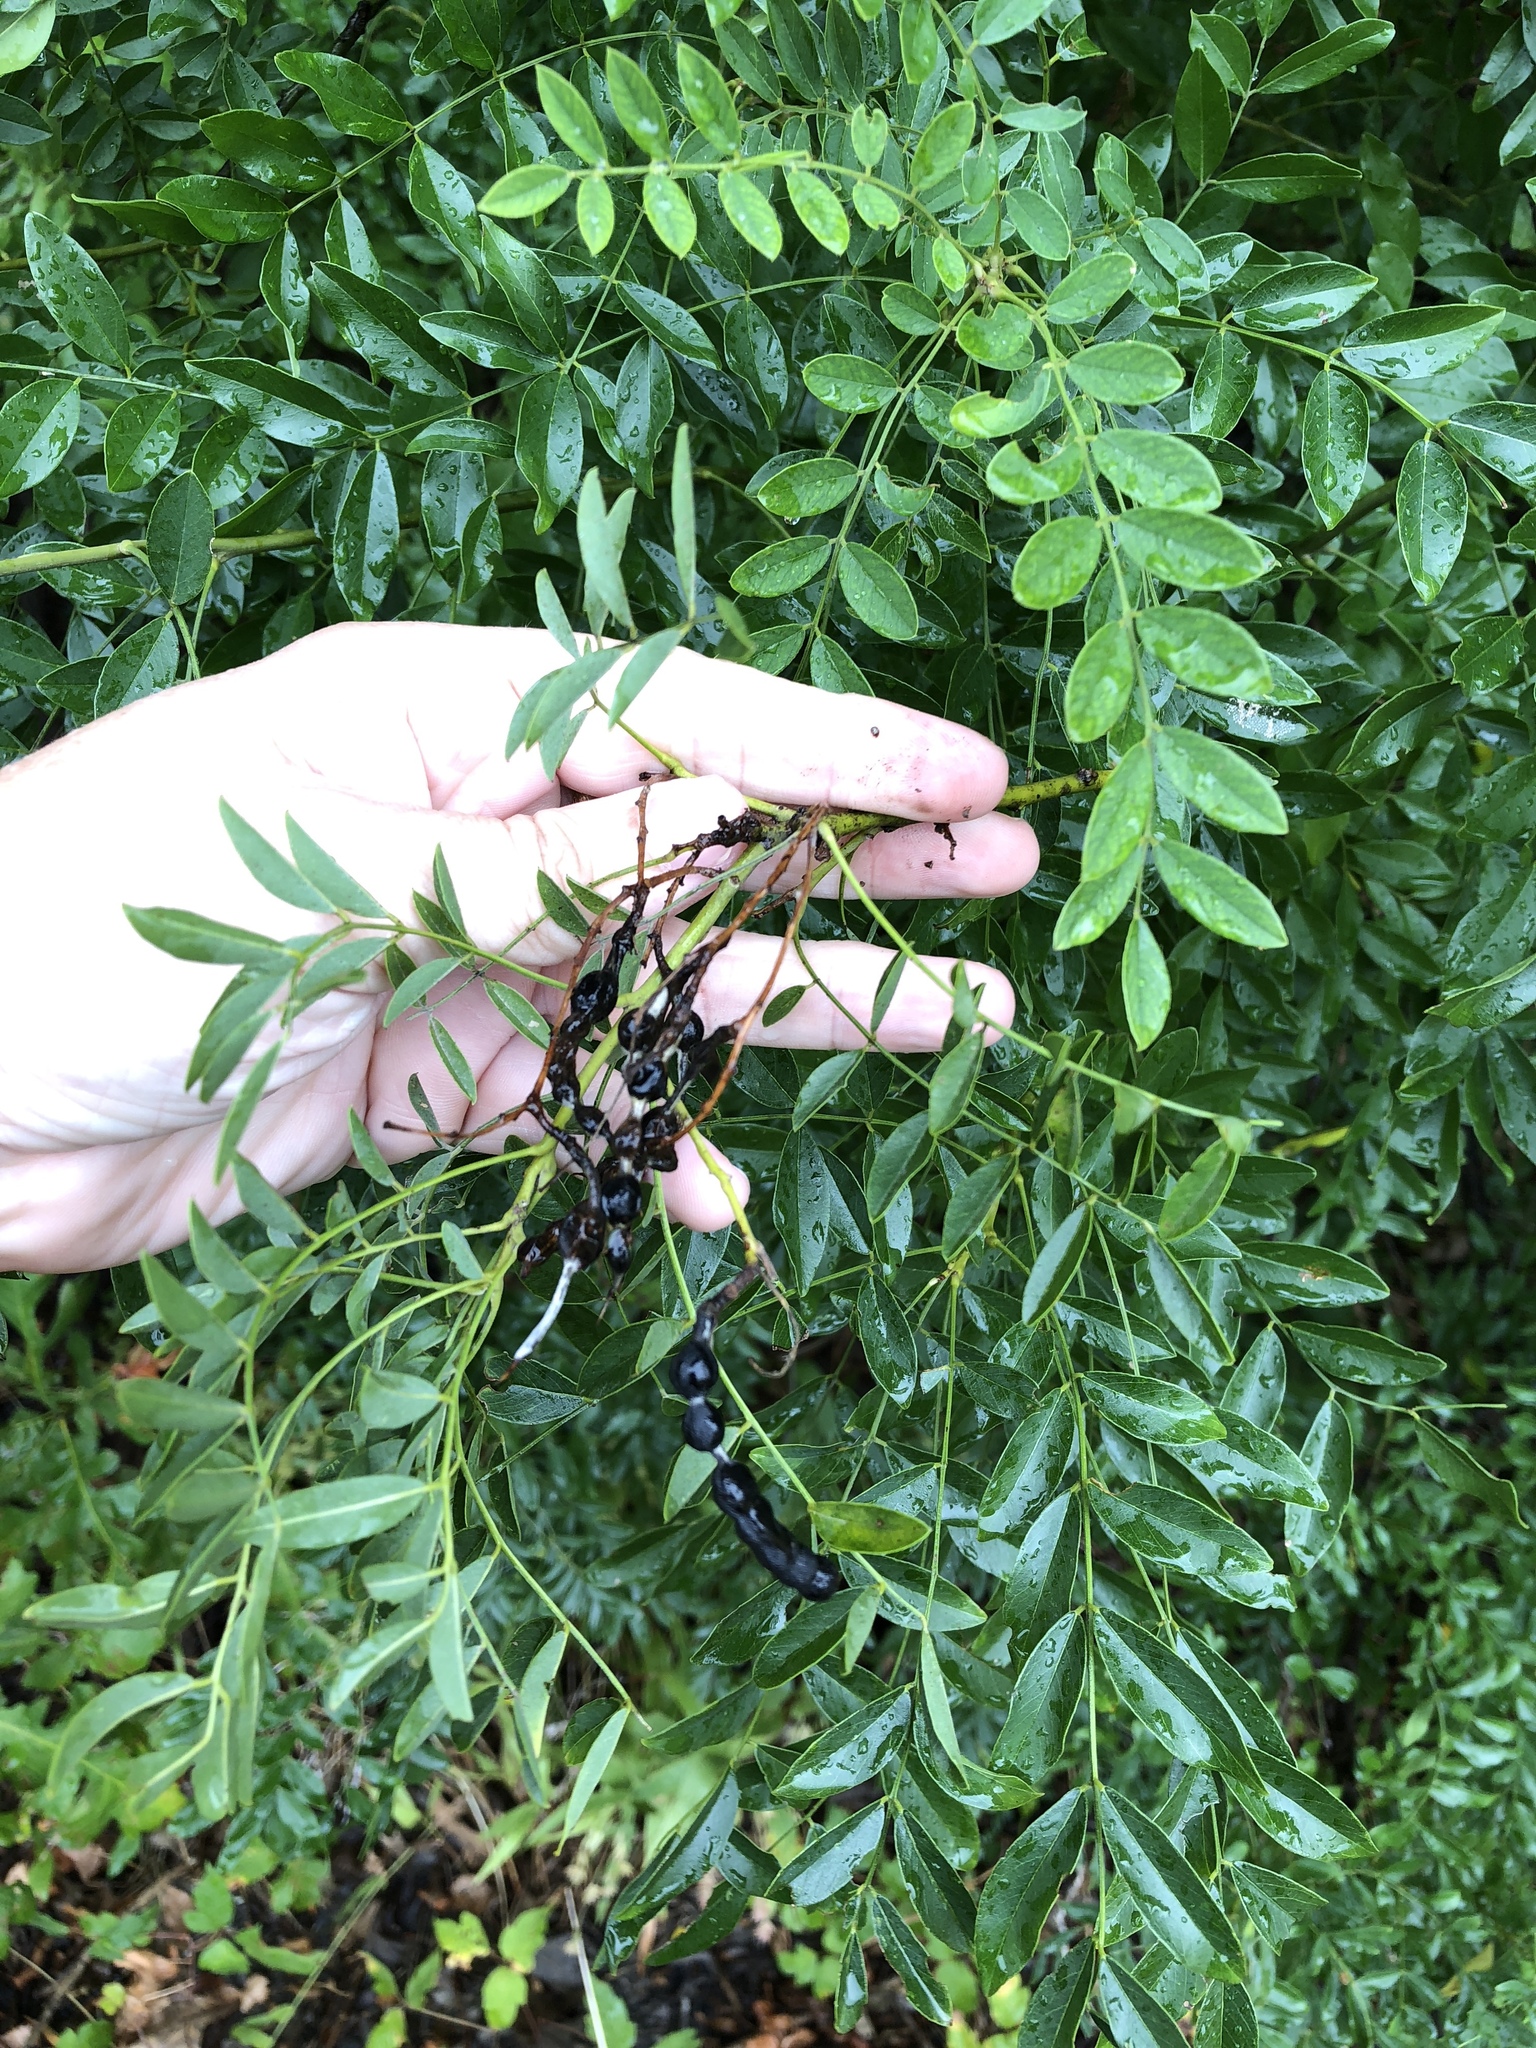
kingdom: Plantae
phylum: Tracheophyta
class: Magnoliopsida
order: Fabales
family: Fabaceae
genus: Styphnolobium
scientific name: Styphnolobium affine
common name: Texas sophora
